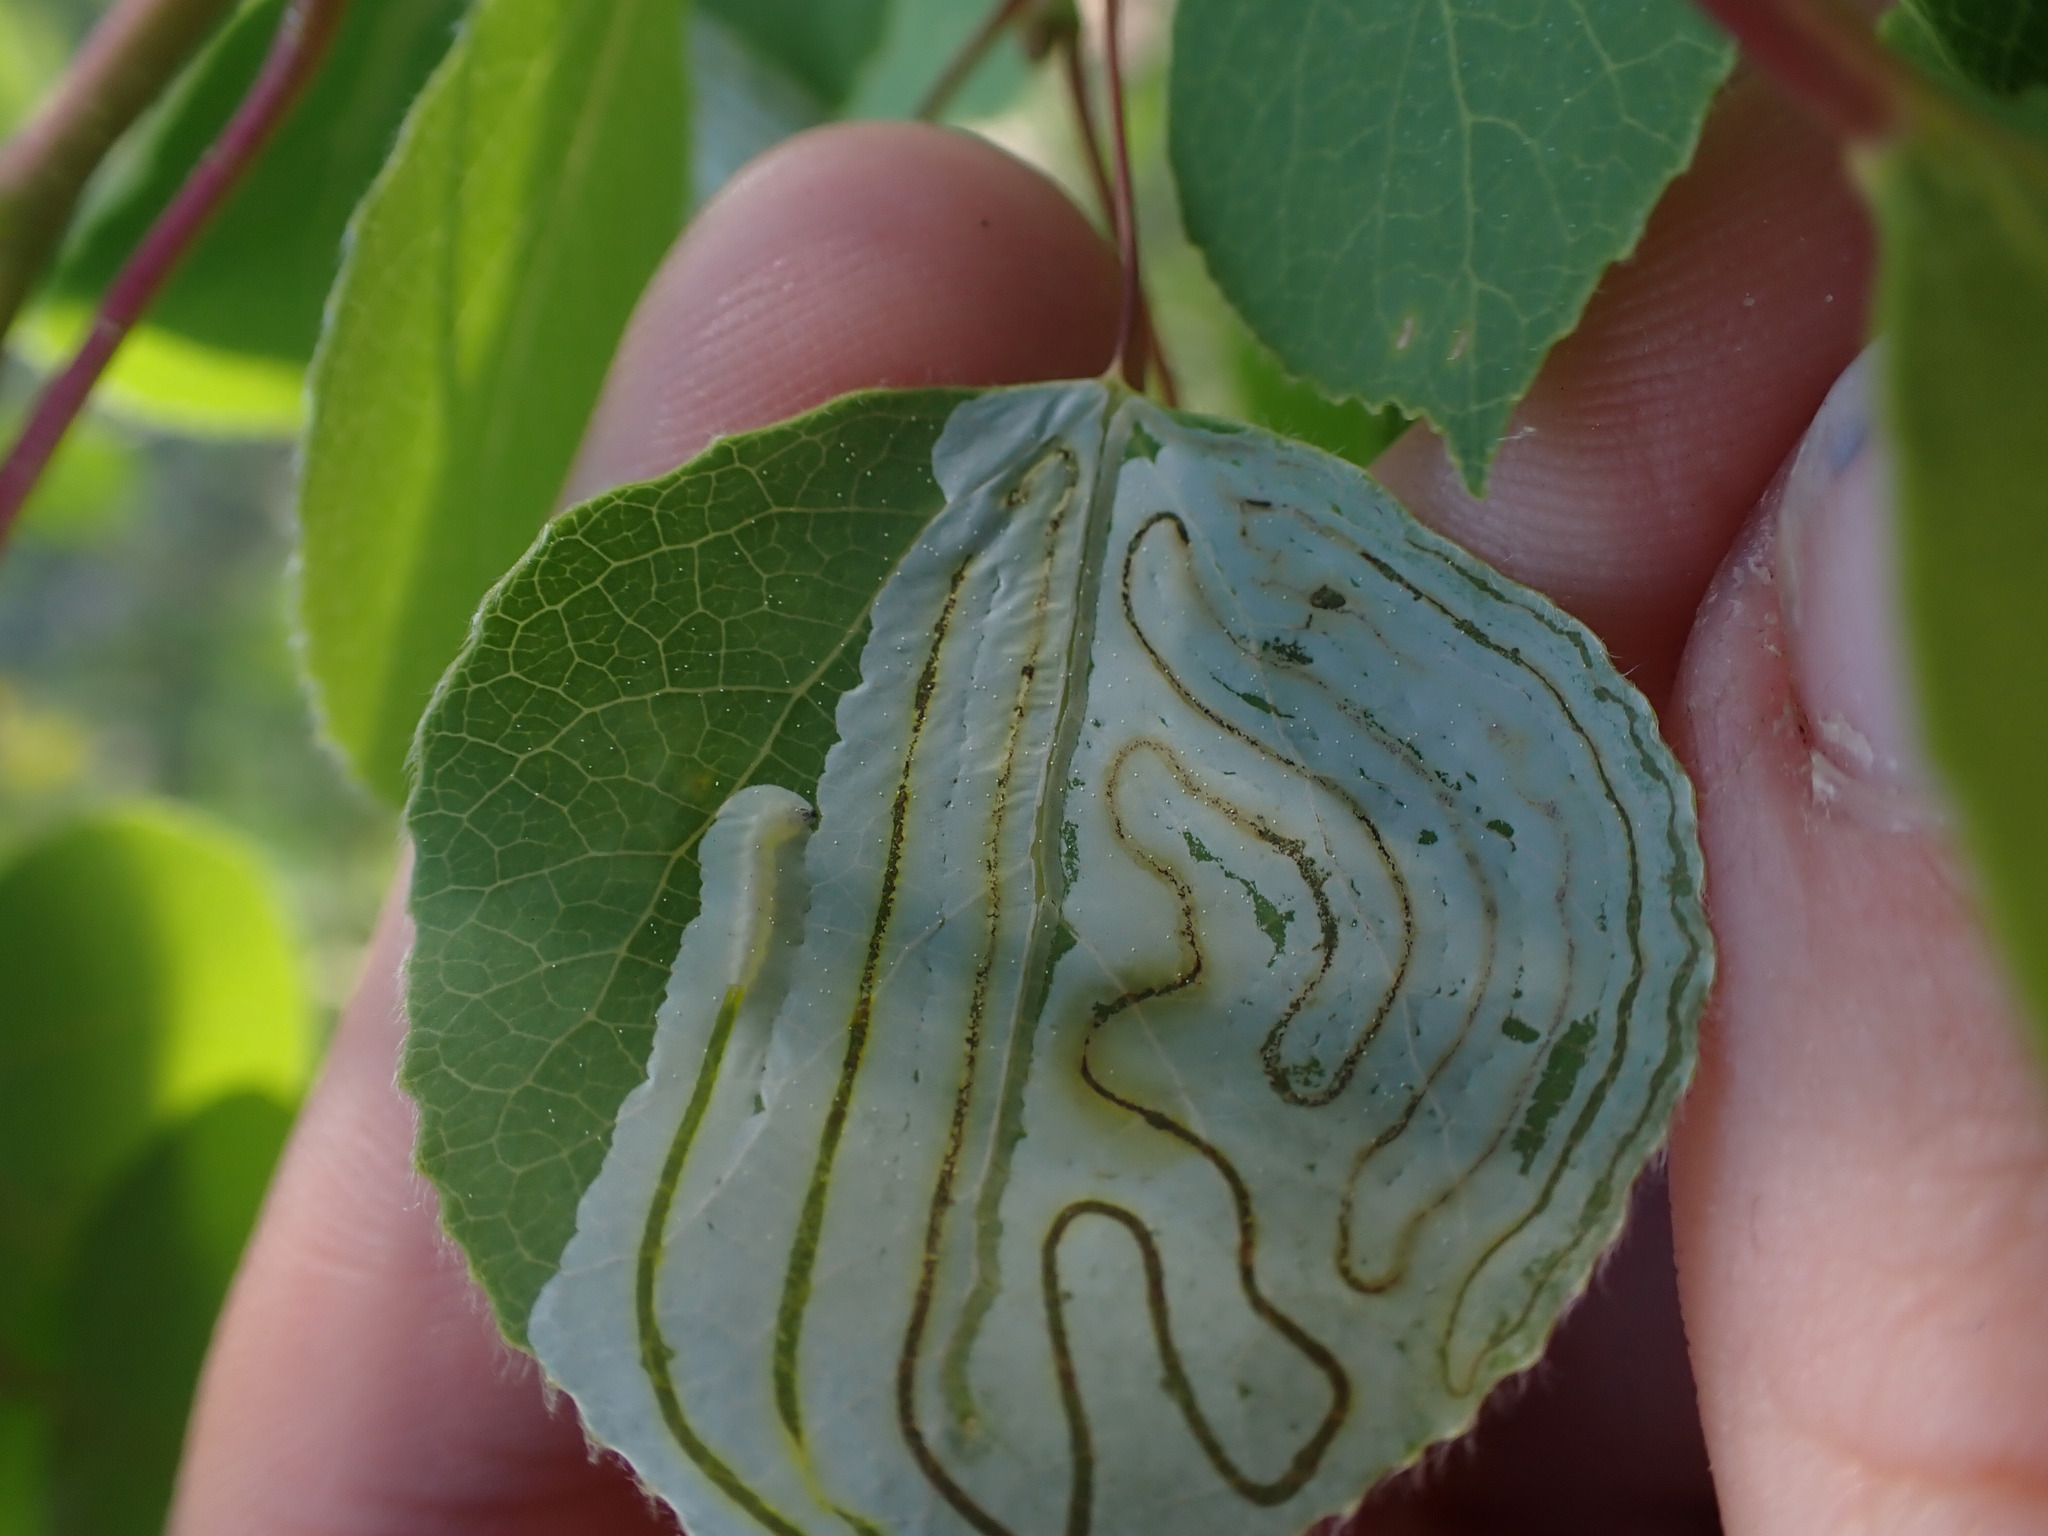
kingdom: Animalia
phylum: Arthropoda
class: Insecta
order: Lepidoptera
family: Gracillariidae
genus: Phyllocnistis
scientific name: Phyllocnistis populiella
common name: Aspen serpentine leafminer moth
